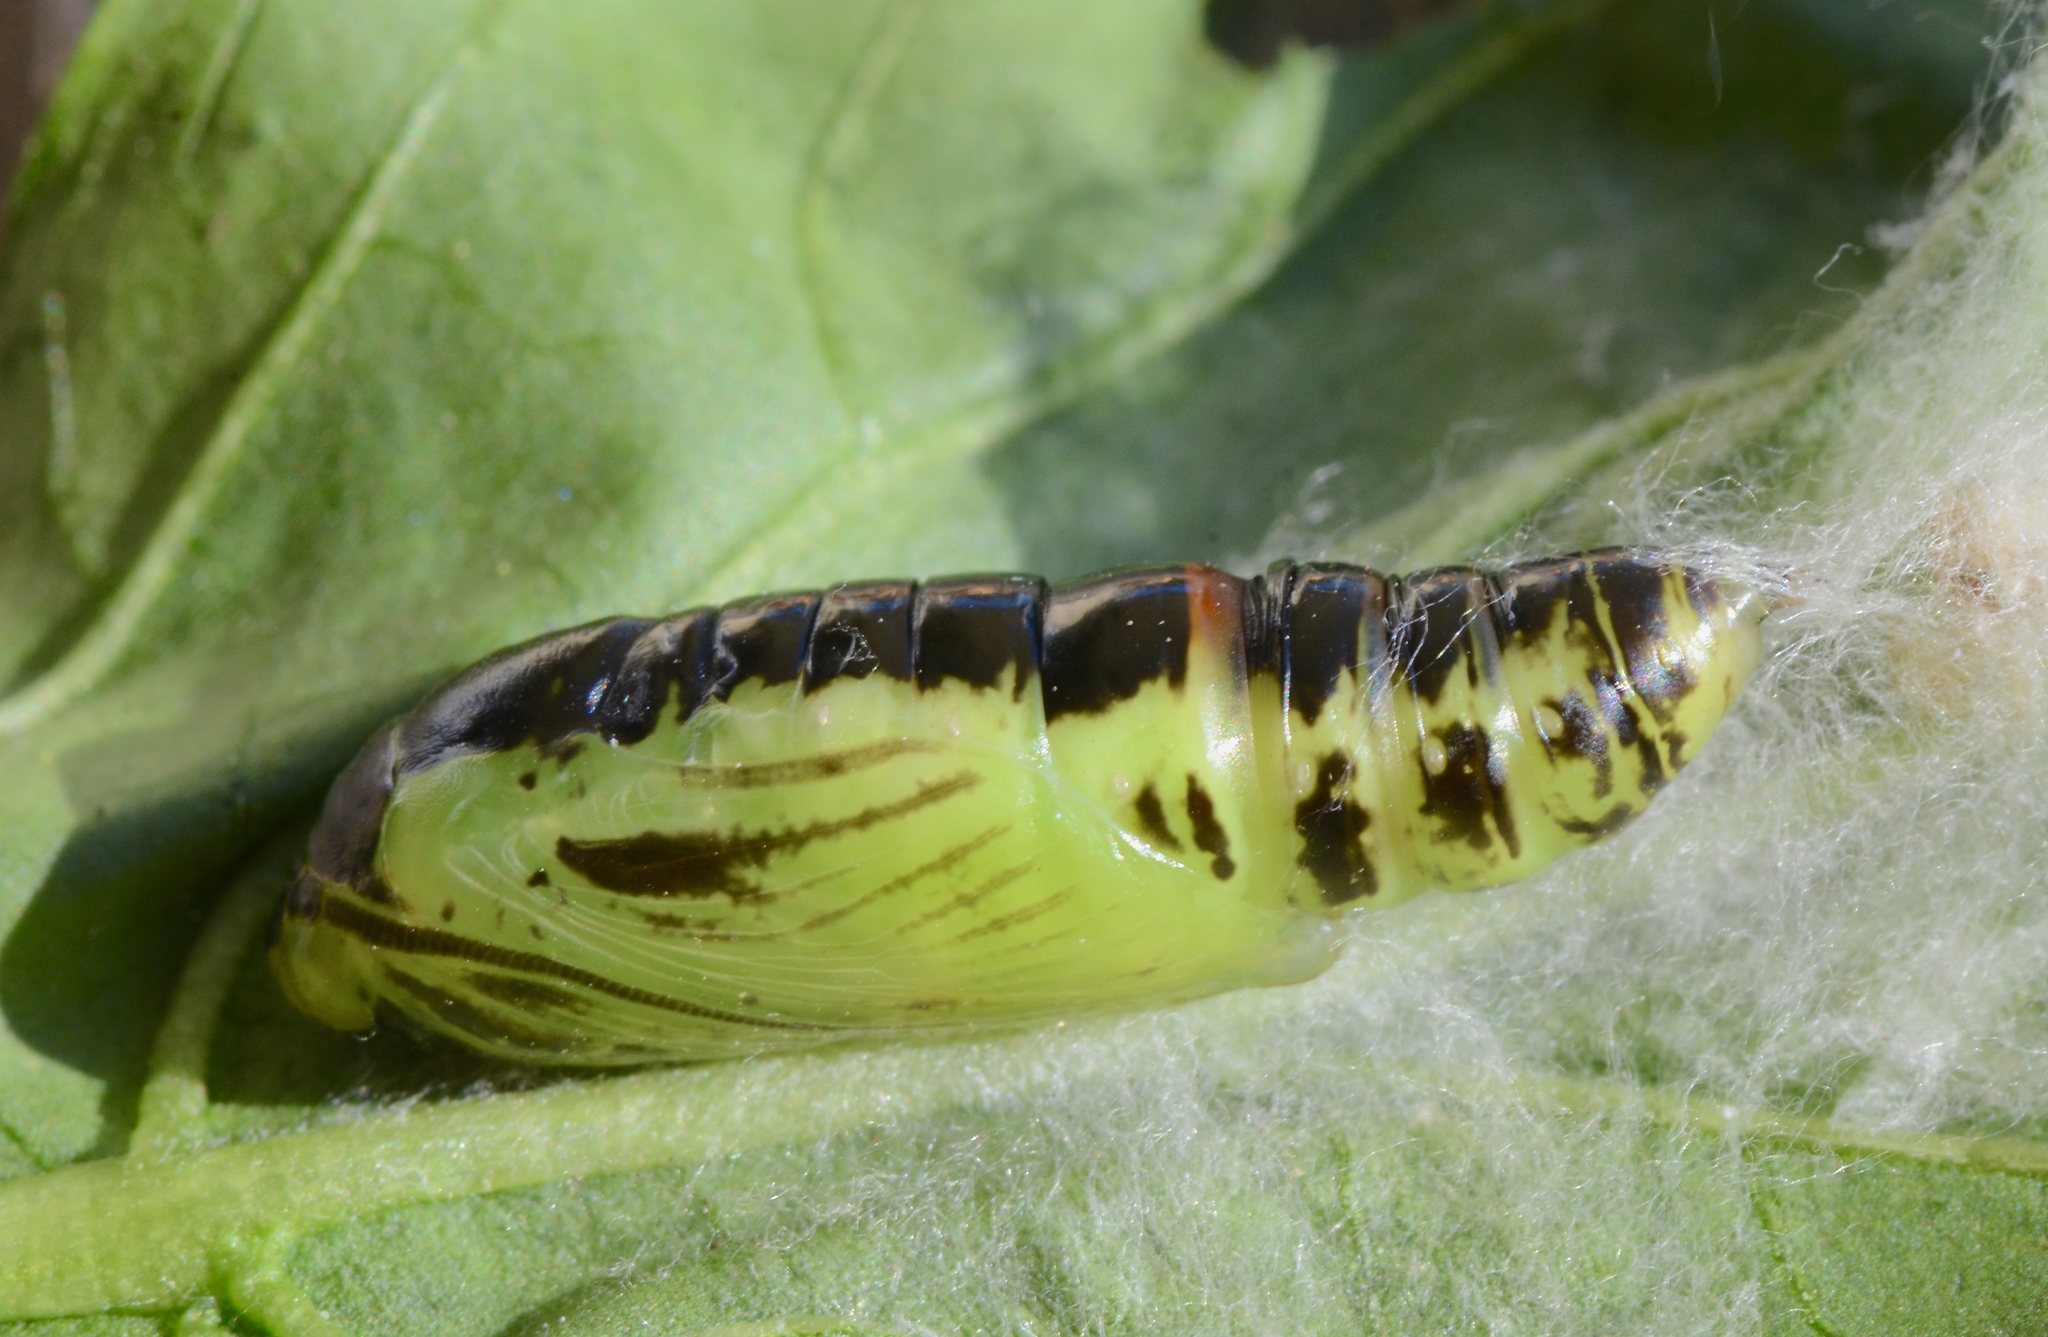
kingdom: Animalia
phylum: Arthropoda
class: Insecta
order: Lepidoptera
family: Noctuidae
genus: Chrysodeixis
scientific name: Chrysodeixis eriosoma
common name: Green garden looper
